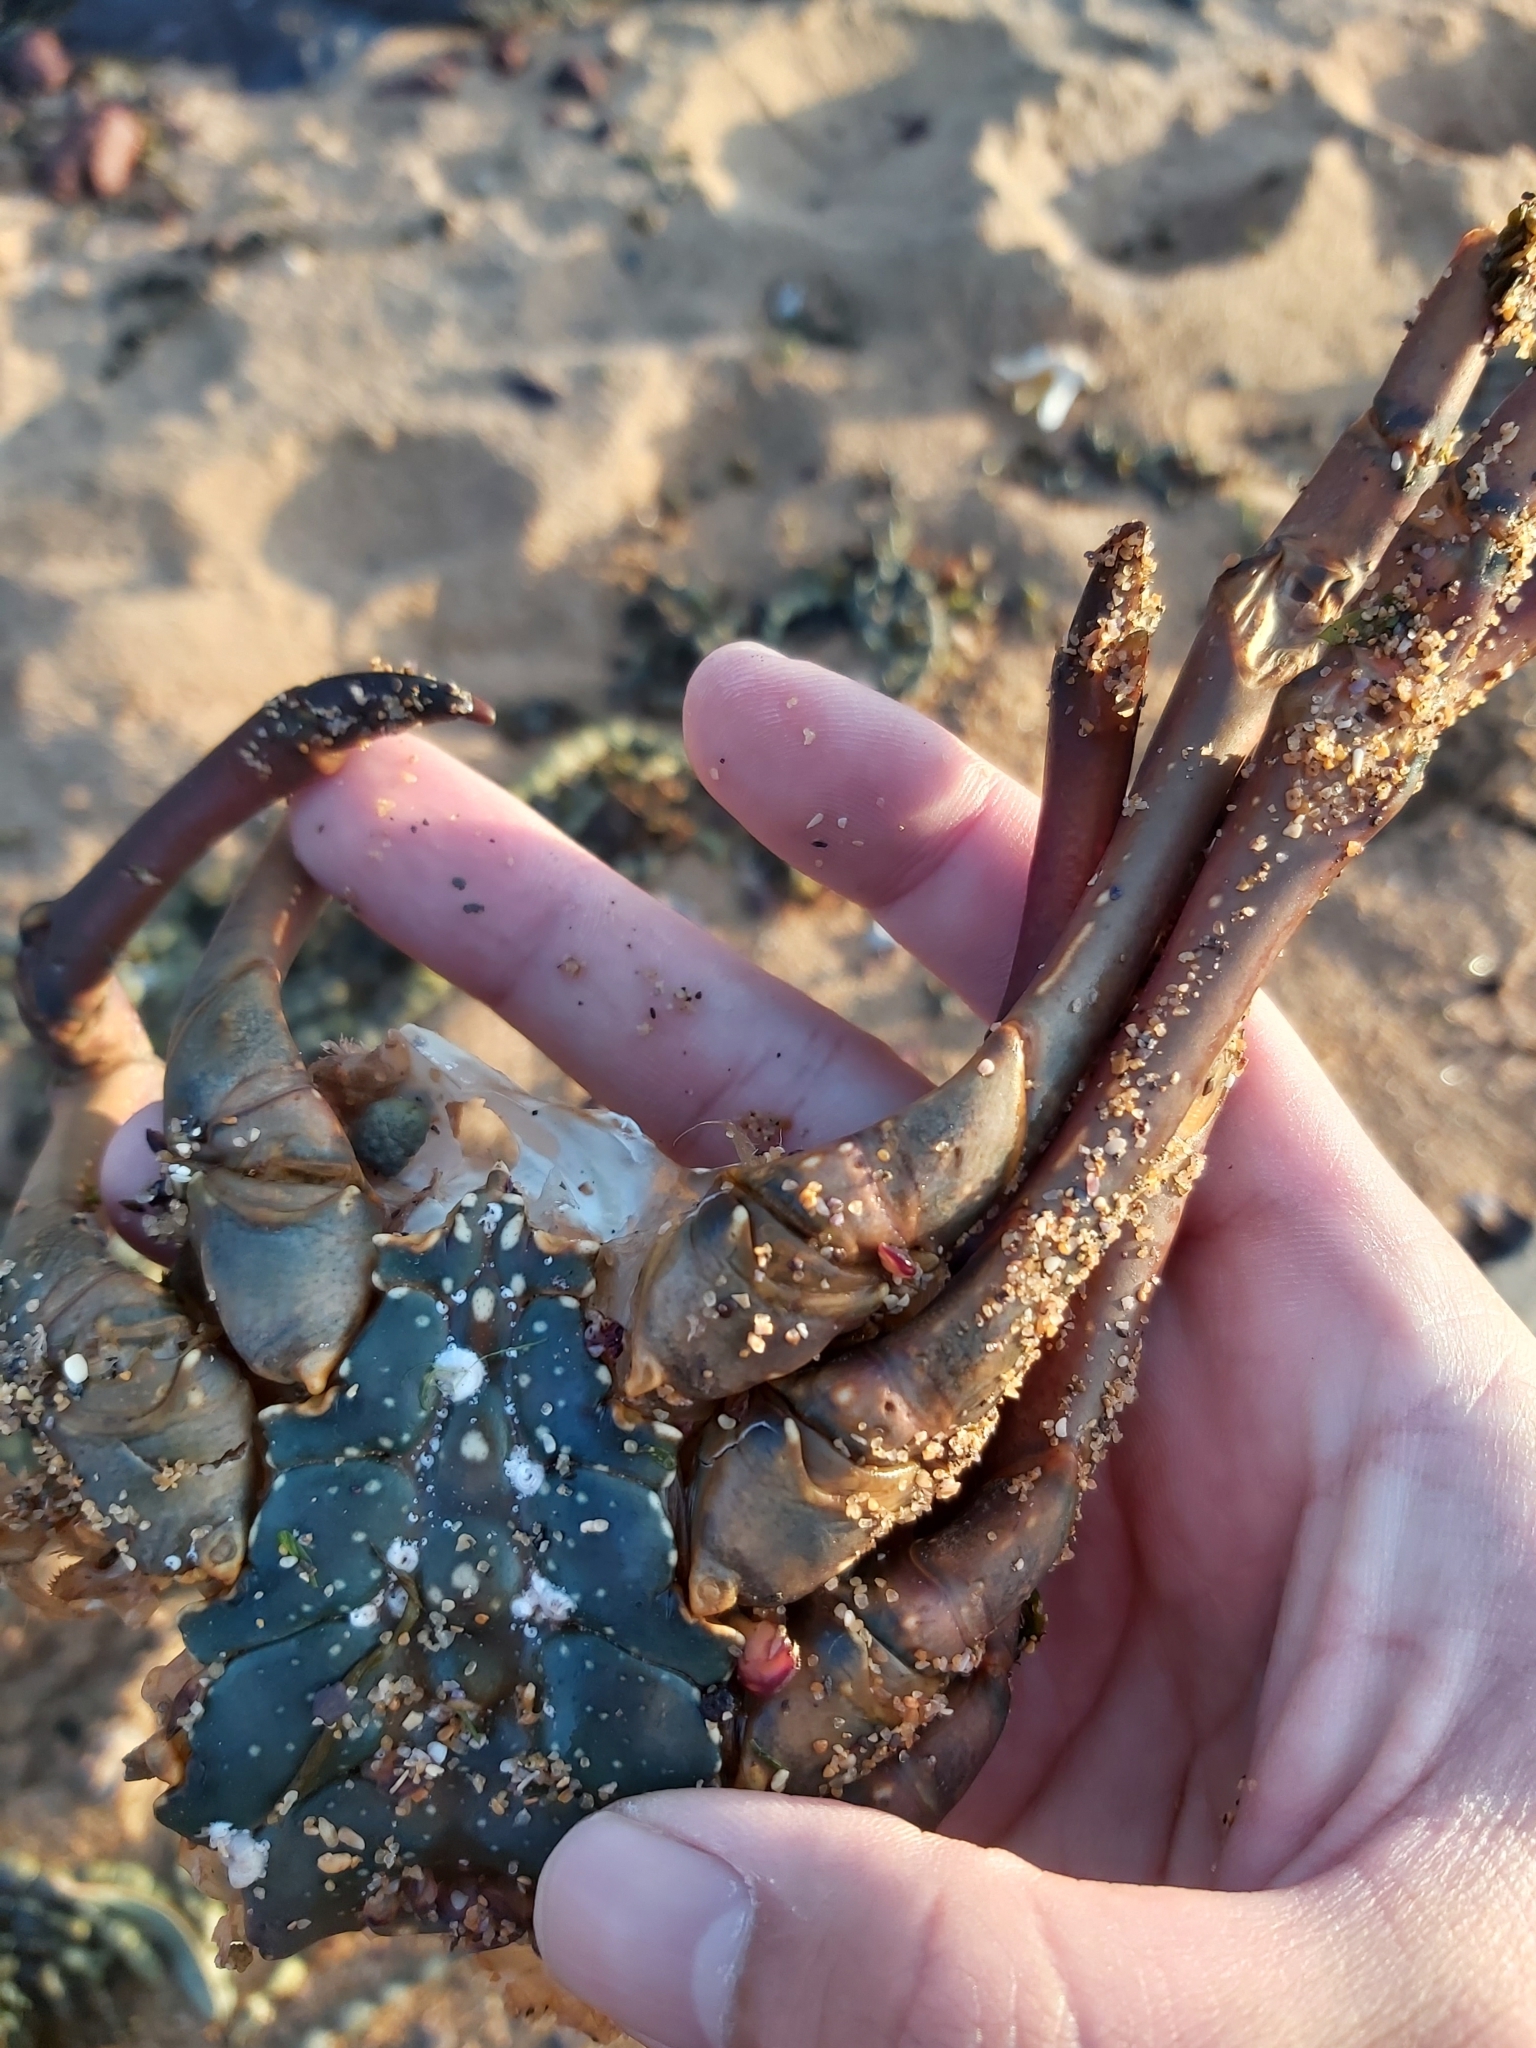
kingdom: Animalia
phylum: Arthropoda
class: Malacostraca
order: Decapoda
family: Palinuridae
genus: Sagmariasus
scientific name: Sagmariasus verreauxi
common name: Green rock lobster
